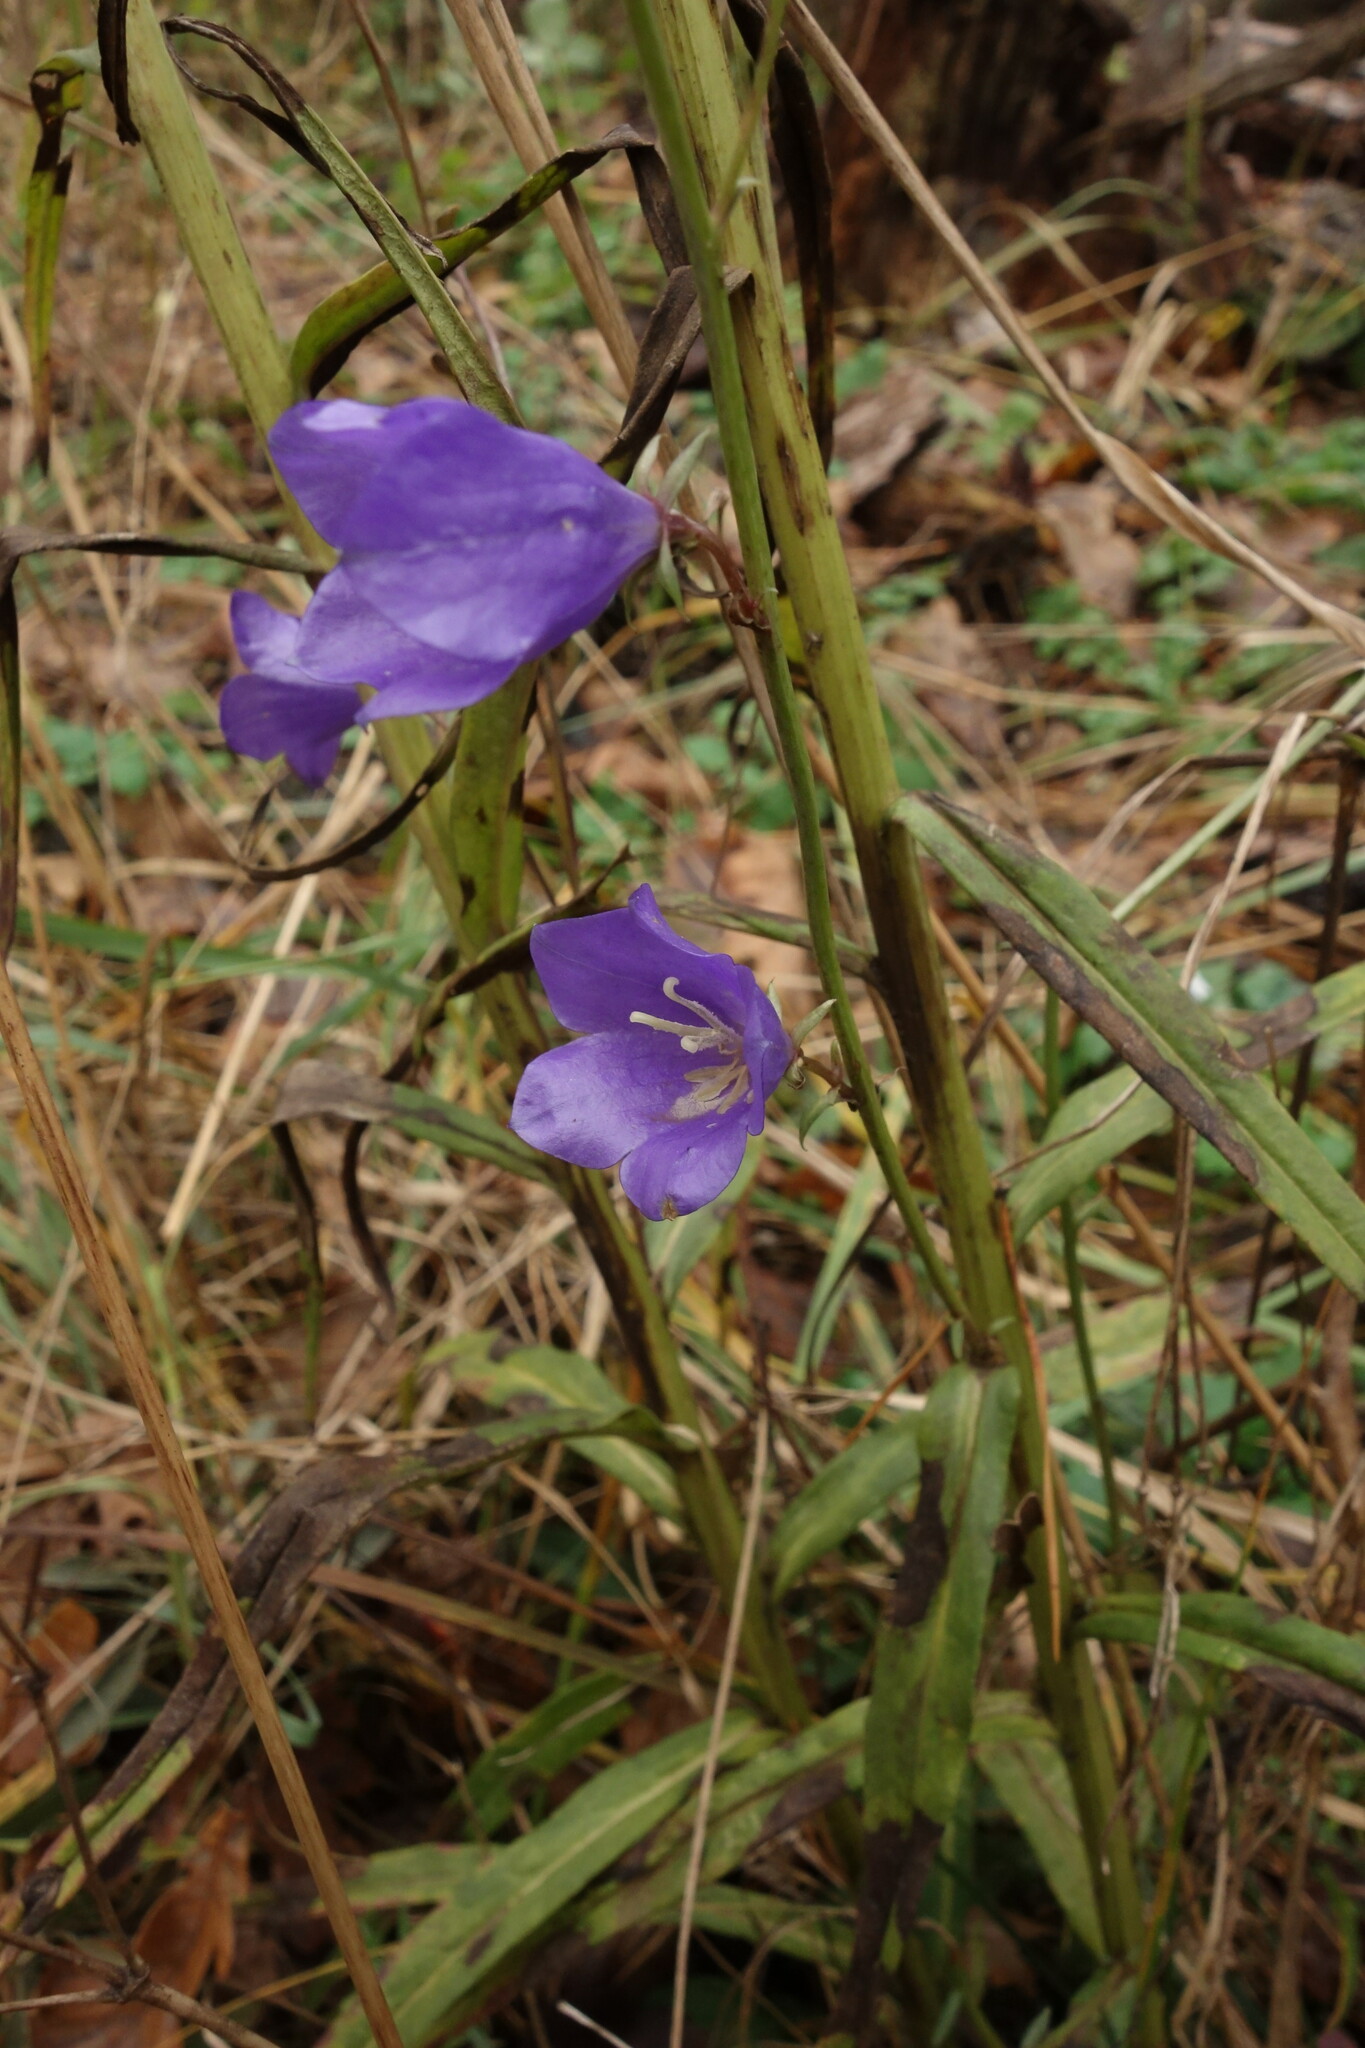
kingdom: Plantae
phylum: Tracheophyta
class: Magnoliopsida
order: Asterales
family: Campanulaceae
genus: Campanula
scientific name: Campanula persicifolia
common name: Peach-leaved bellflower
